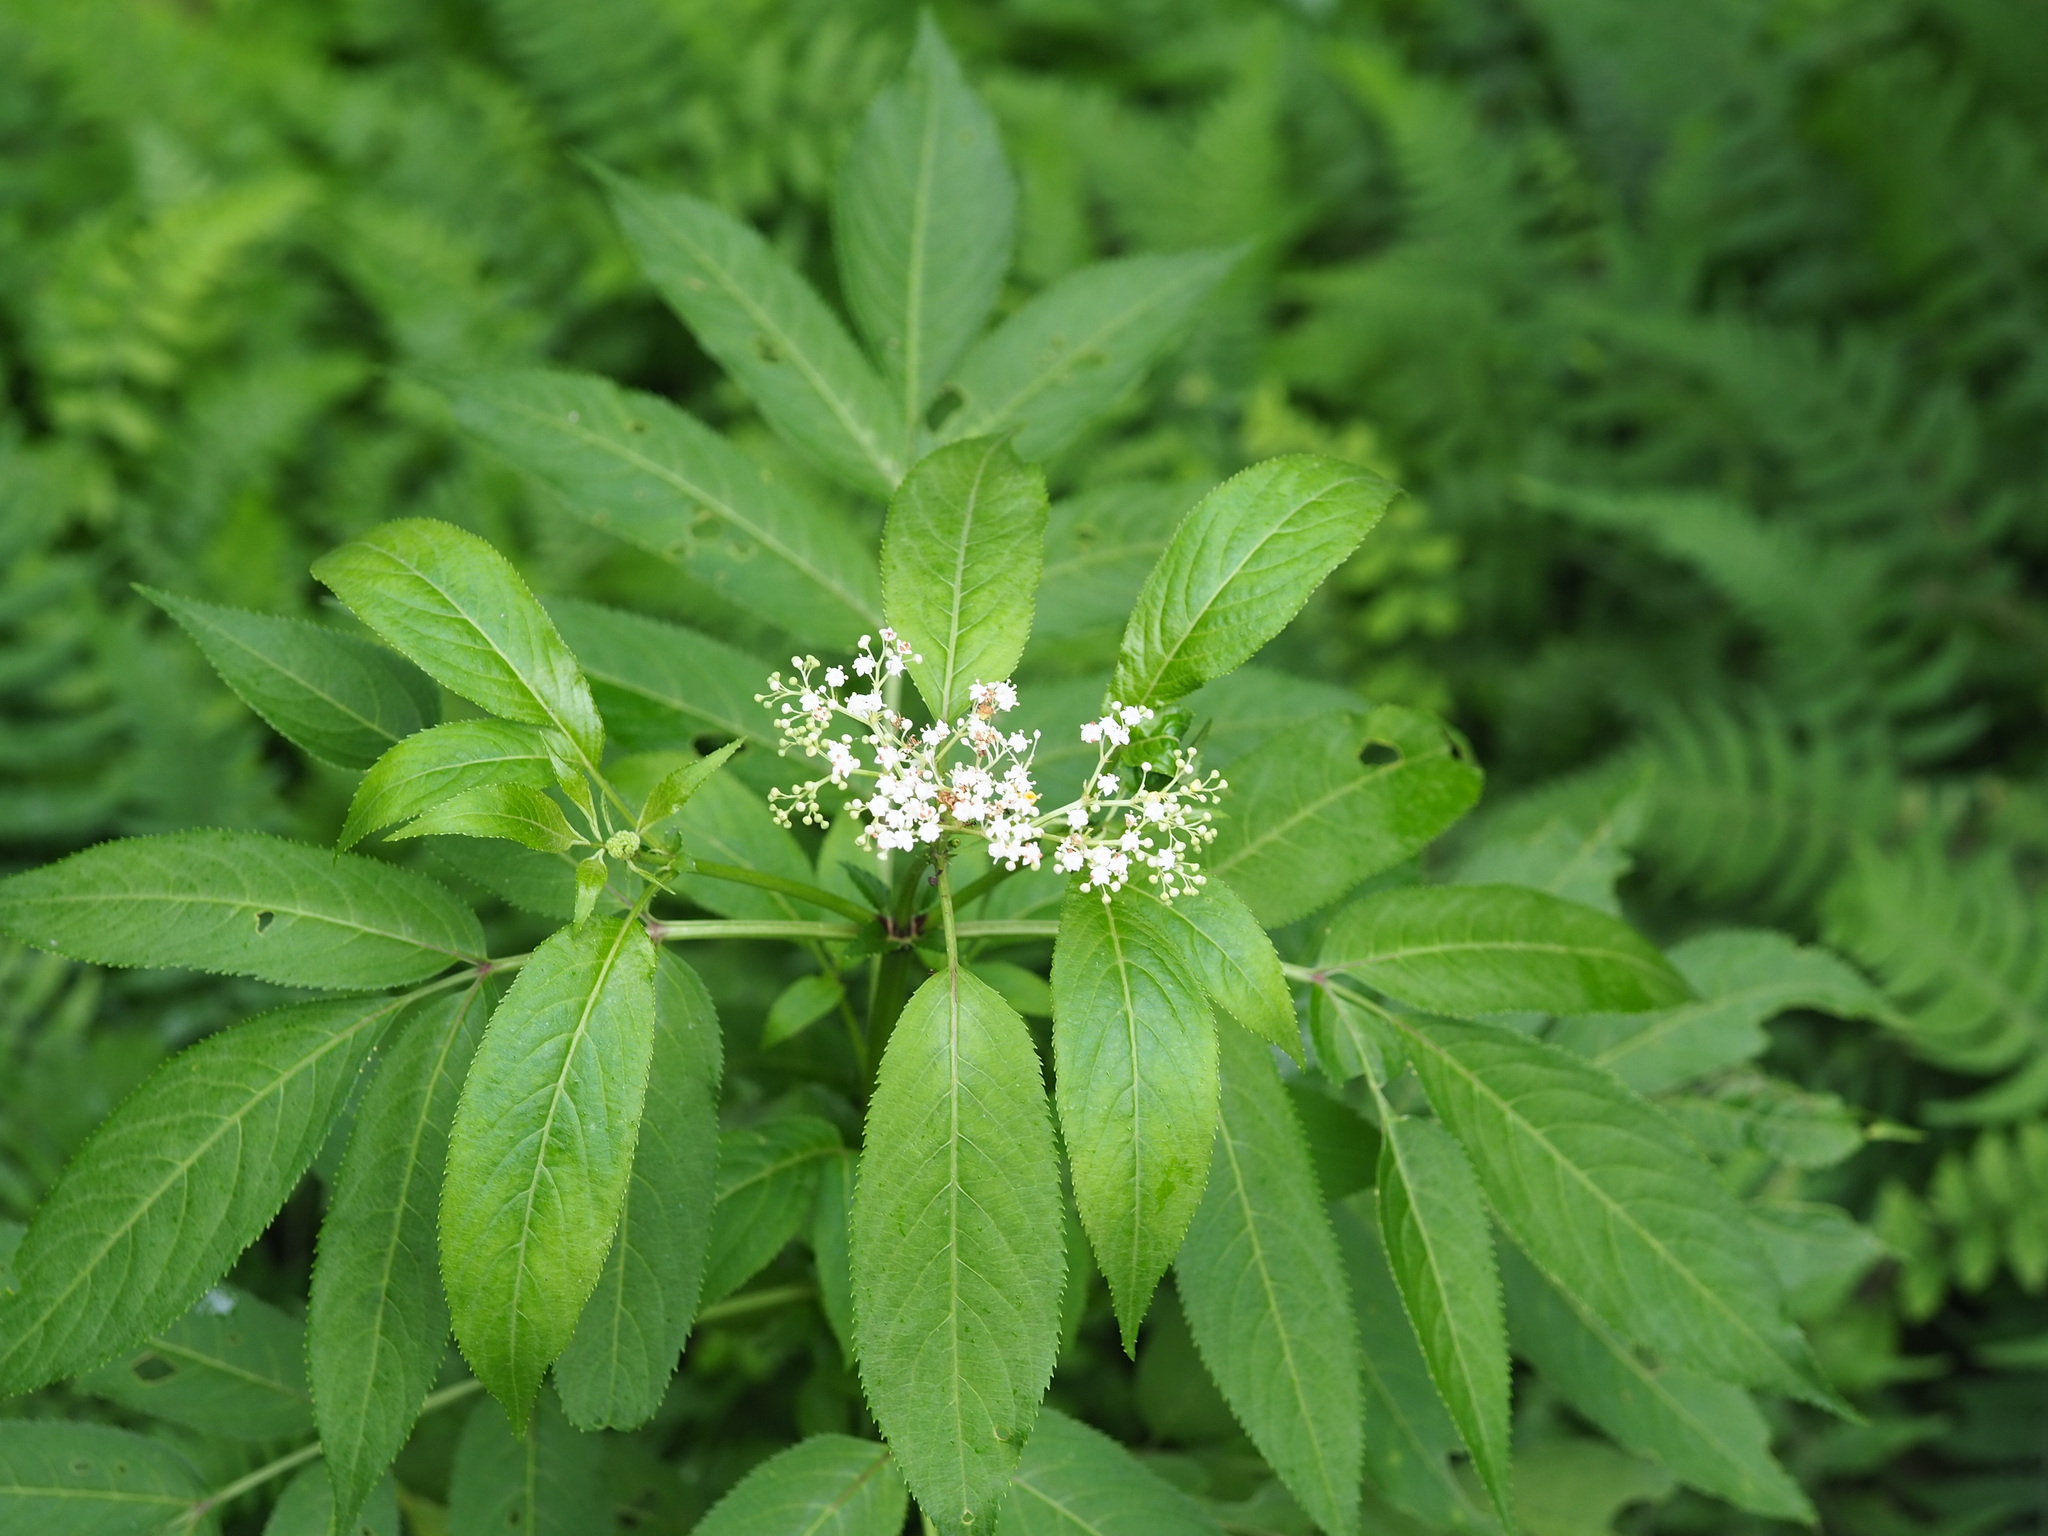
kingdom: Plantae
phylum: Tracheophyta
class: Magnoliopsida
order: Dipsacales
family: Viburnaceae
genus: Sambucus
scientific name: Sambucus javanica
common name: Chinese elder
